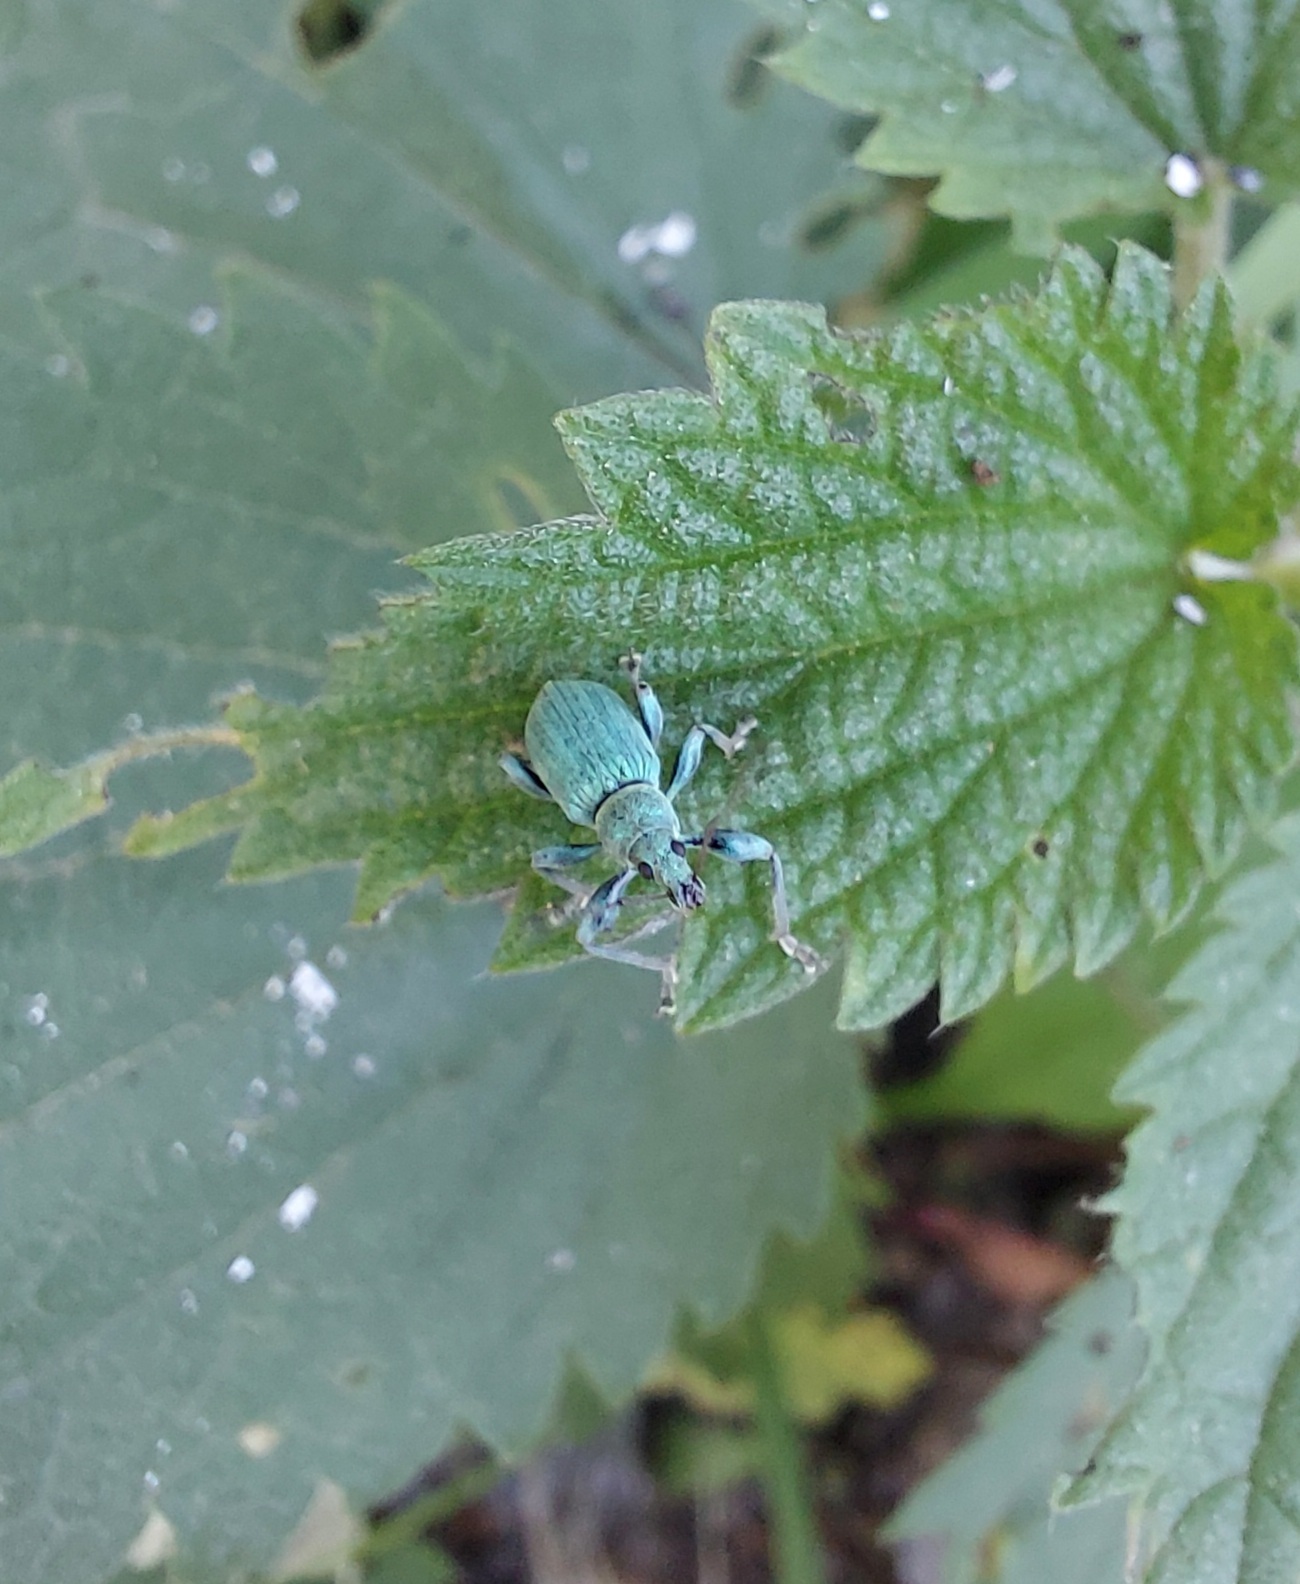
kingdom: Animalia
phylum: Arthropoda
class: Insecta
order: Coleoptera
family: Curculionidae
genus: Phyllobius
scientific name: Phyllobius pomaceus
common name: Green nettle weevil
